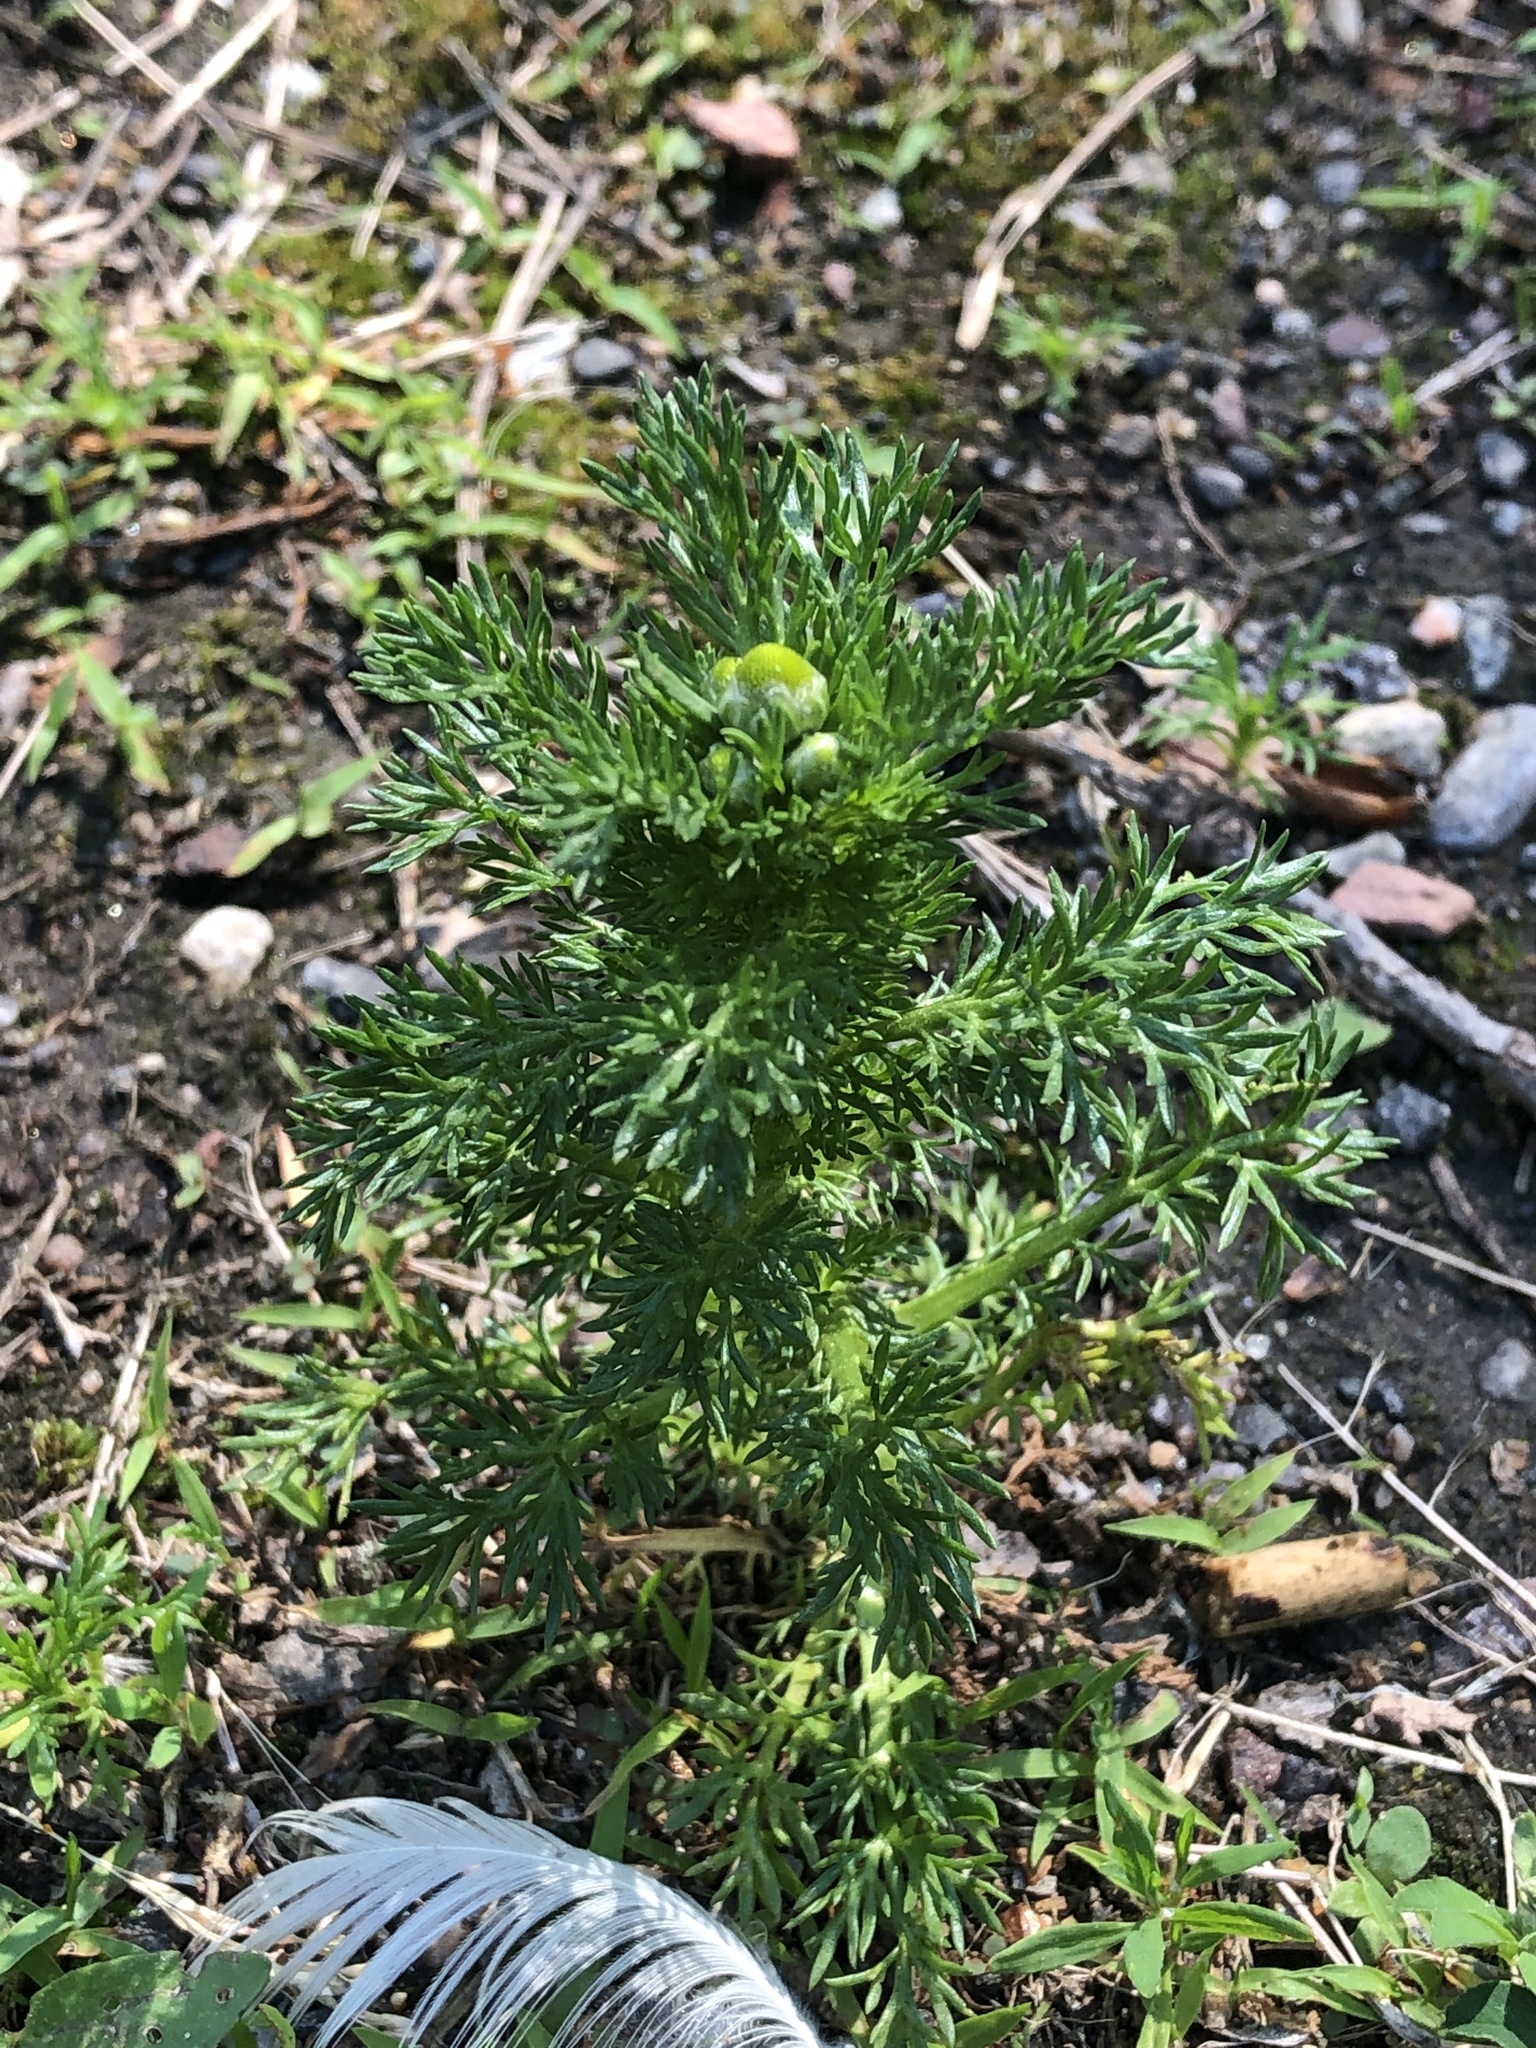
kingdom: Plantae
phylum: Tracheophyta
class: Magnoliopsida
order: Asterales
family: Asteraceae
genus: Matricaria
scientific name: Matricaria discoidea
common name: Disc mayweed
